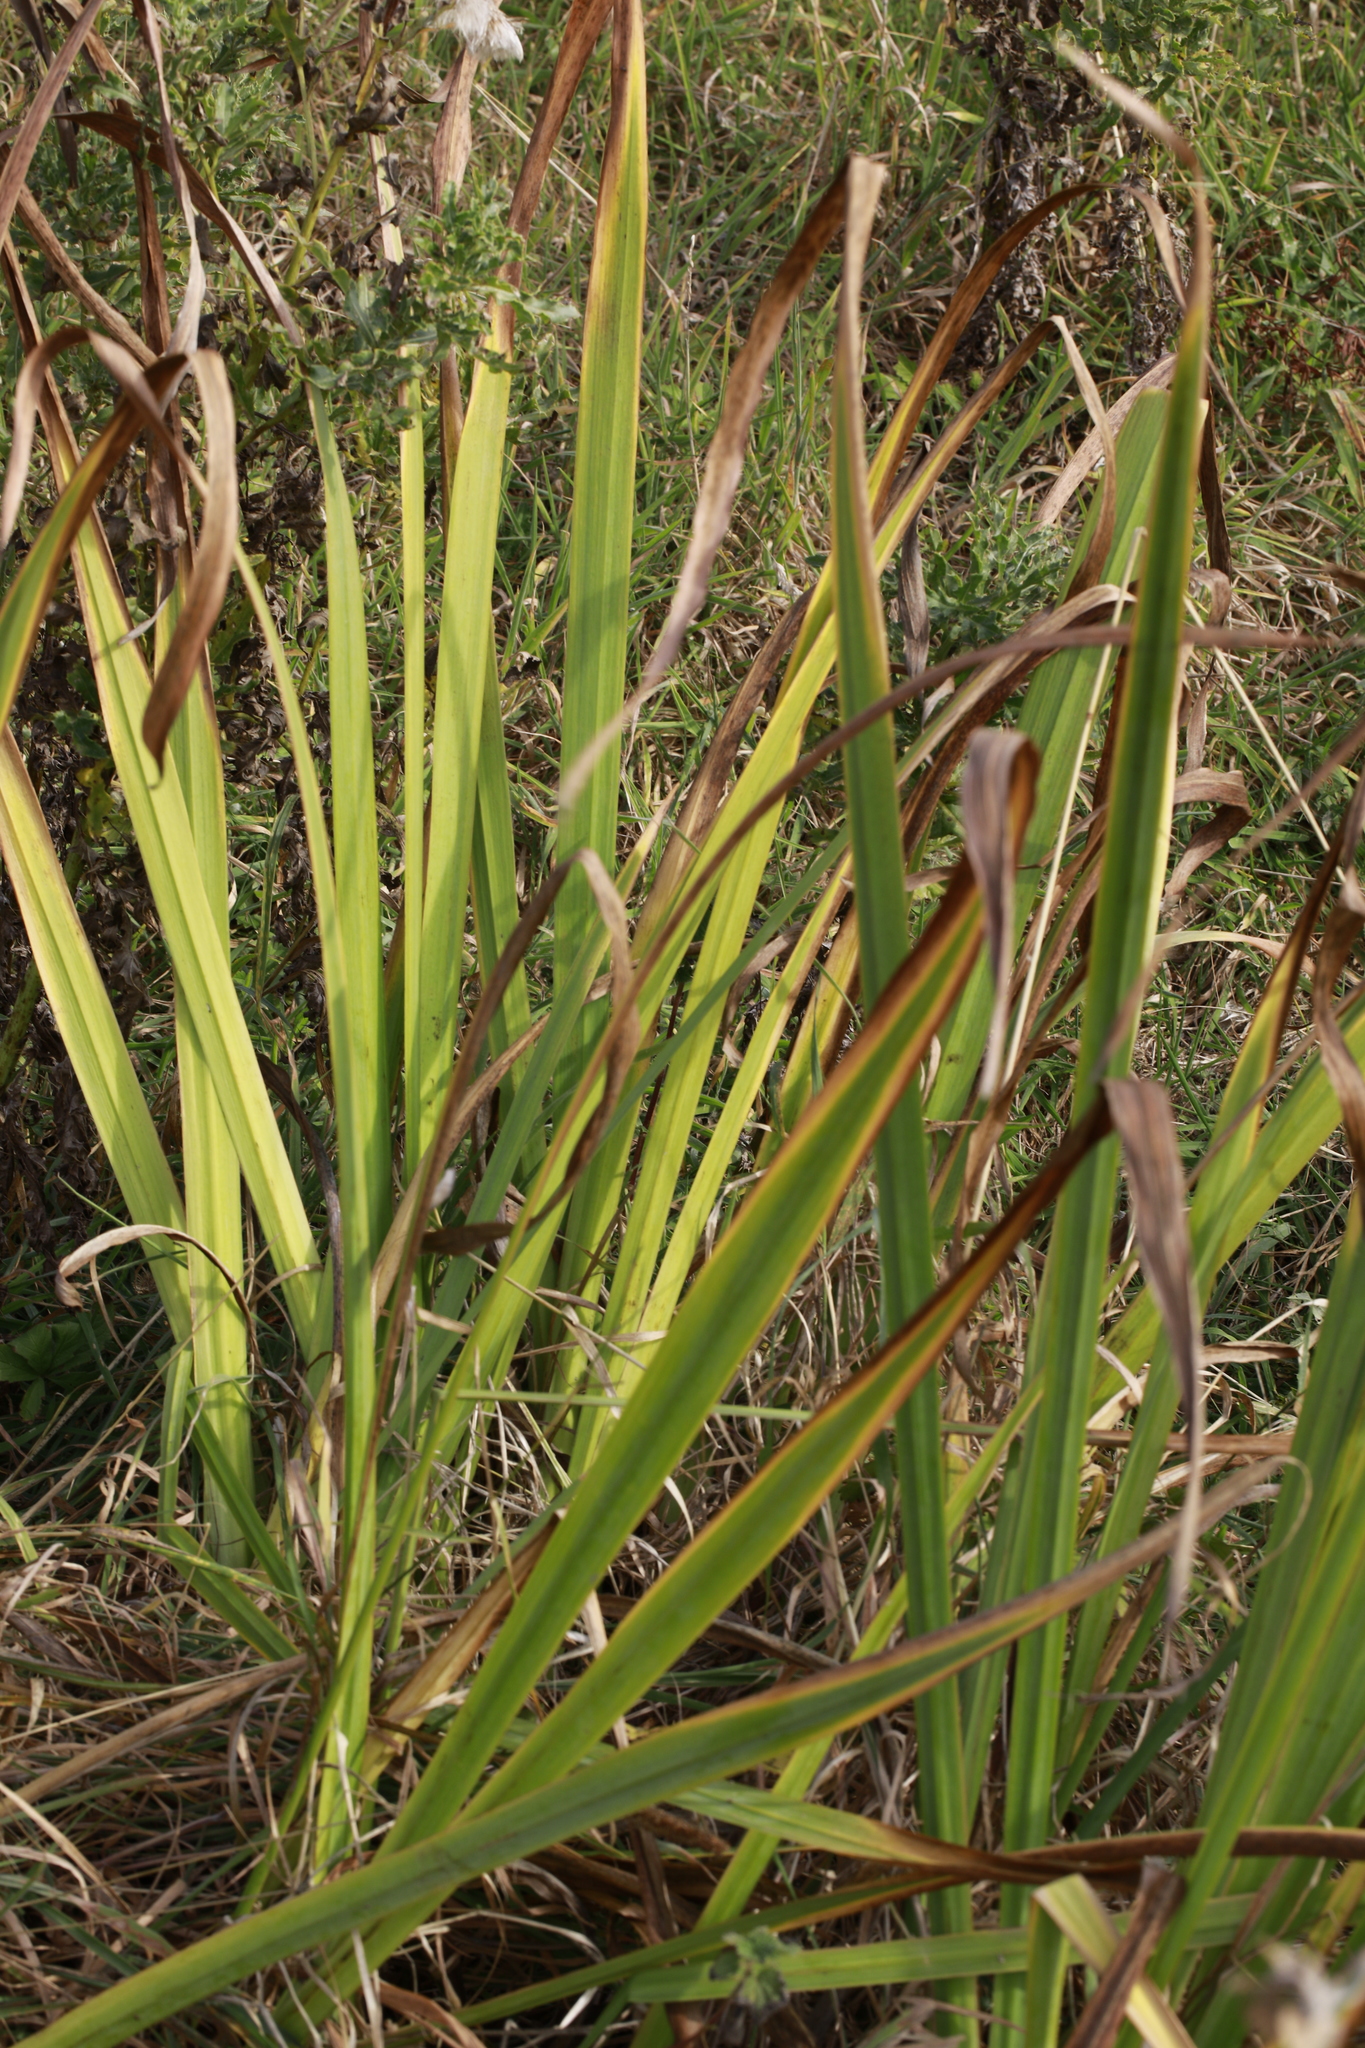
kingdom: Plantae
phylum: Tracheophyta
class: Liliopsida
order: Asparagales
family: Iridaceae
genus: Crocosmia
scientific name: Crocosmia crocosmiiflora
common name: Montbretia
